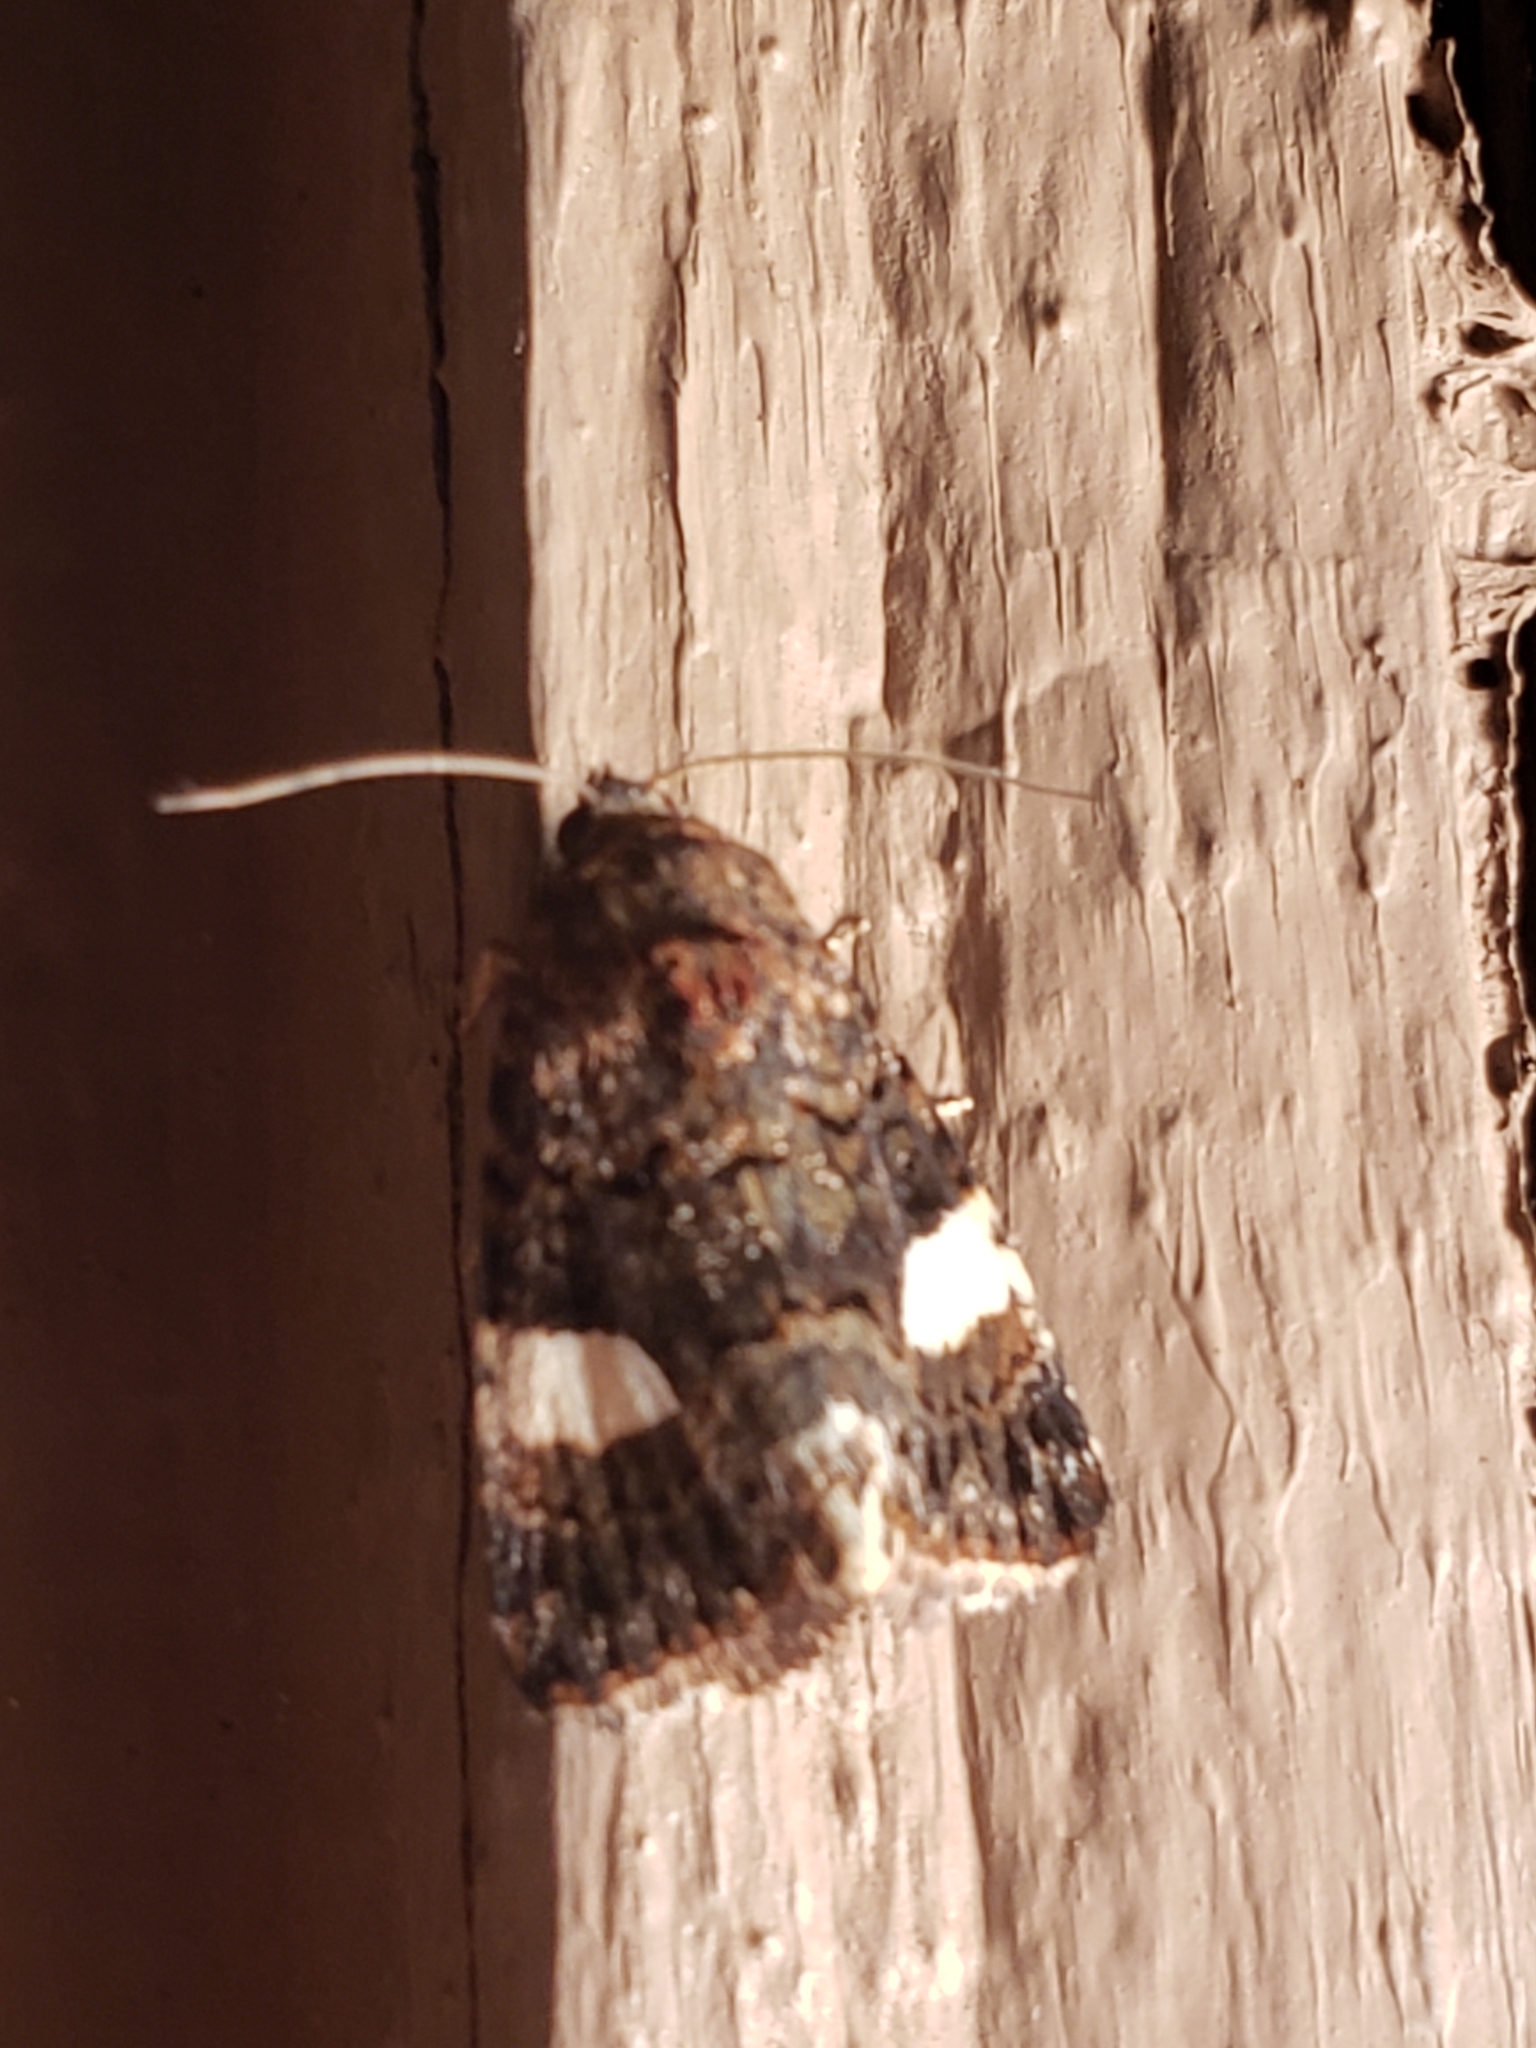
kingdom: Animalia
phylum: Arthropoda
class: Insecta
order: Lepidoptera
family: Erebidae
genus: Tyta
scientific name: Tyta luctuosa
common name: Four-spotted
